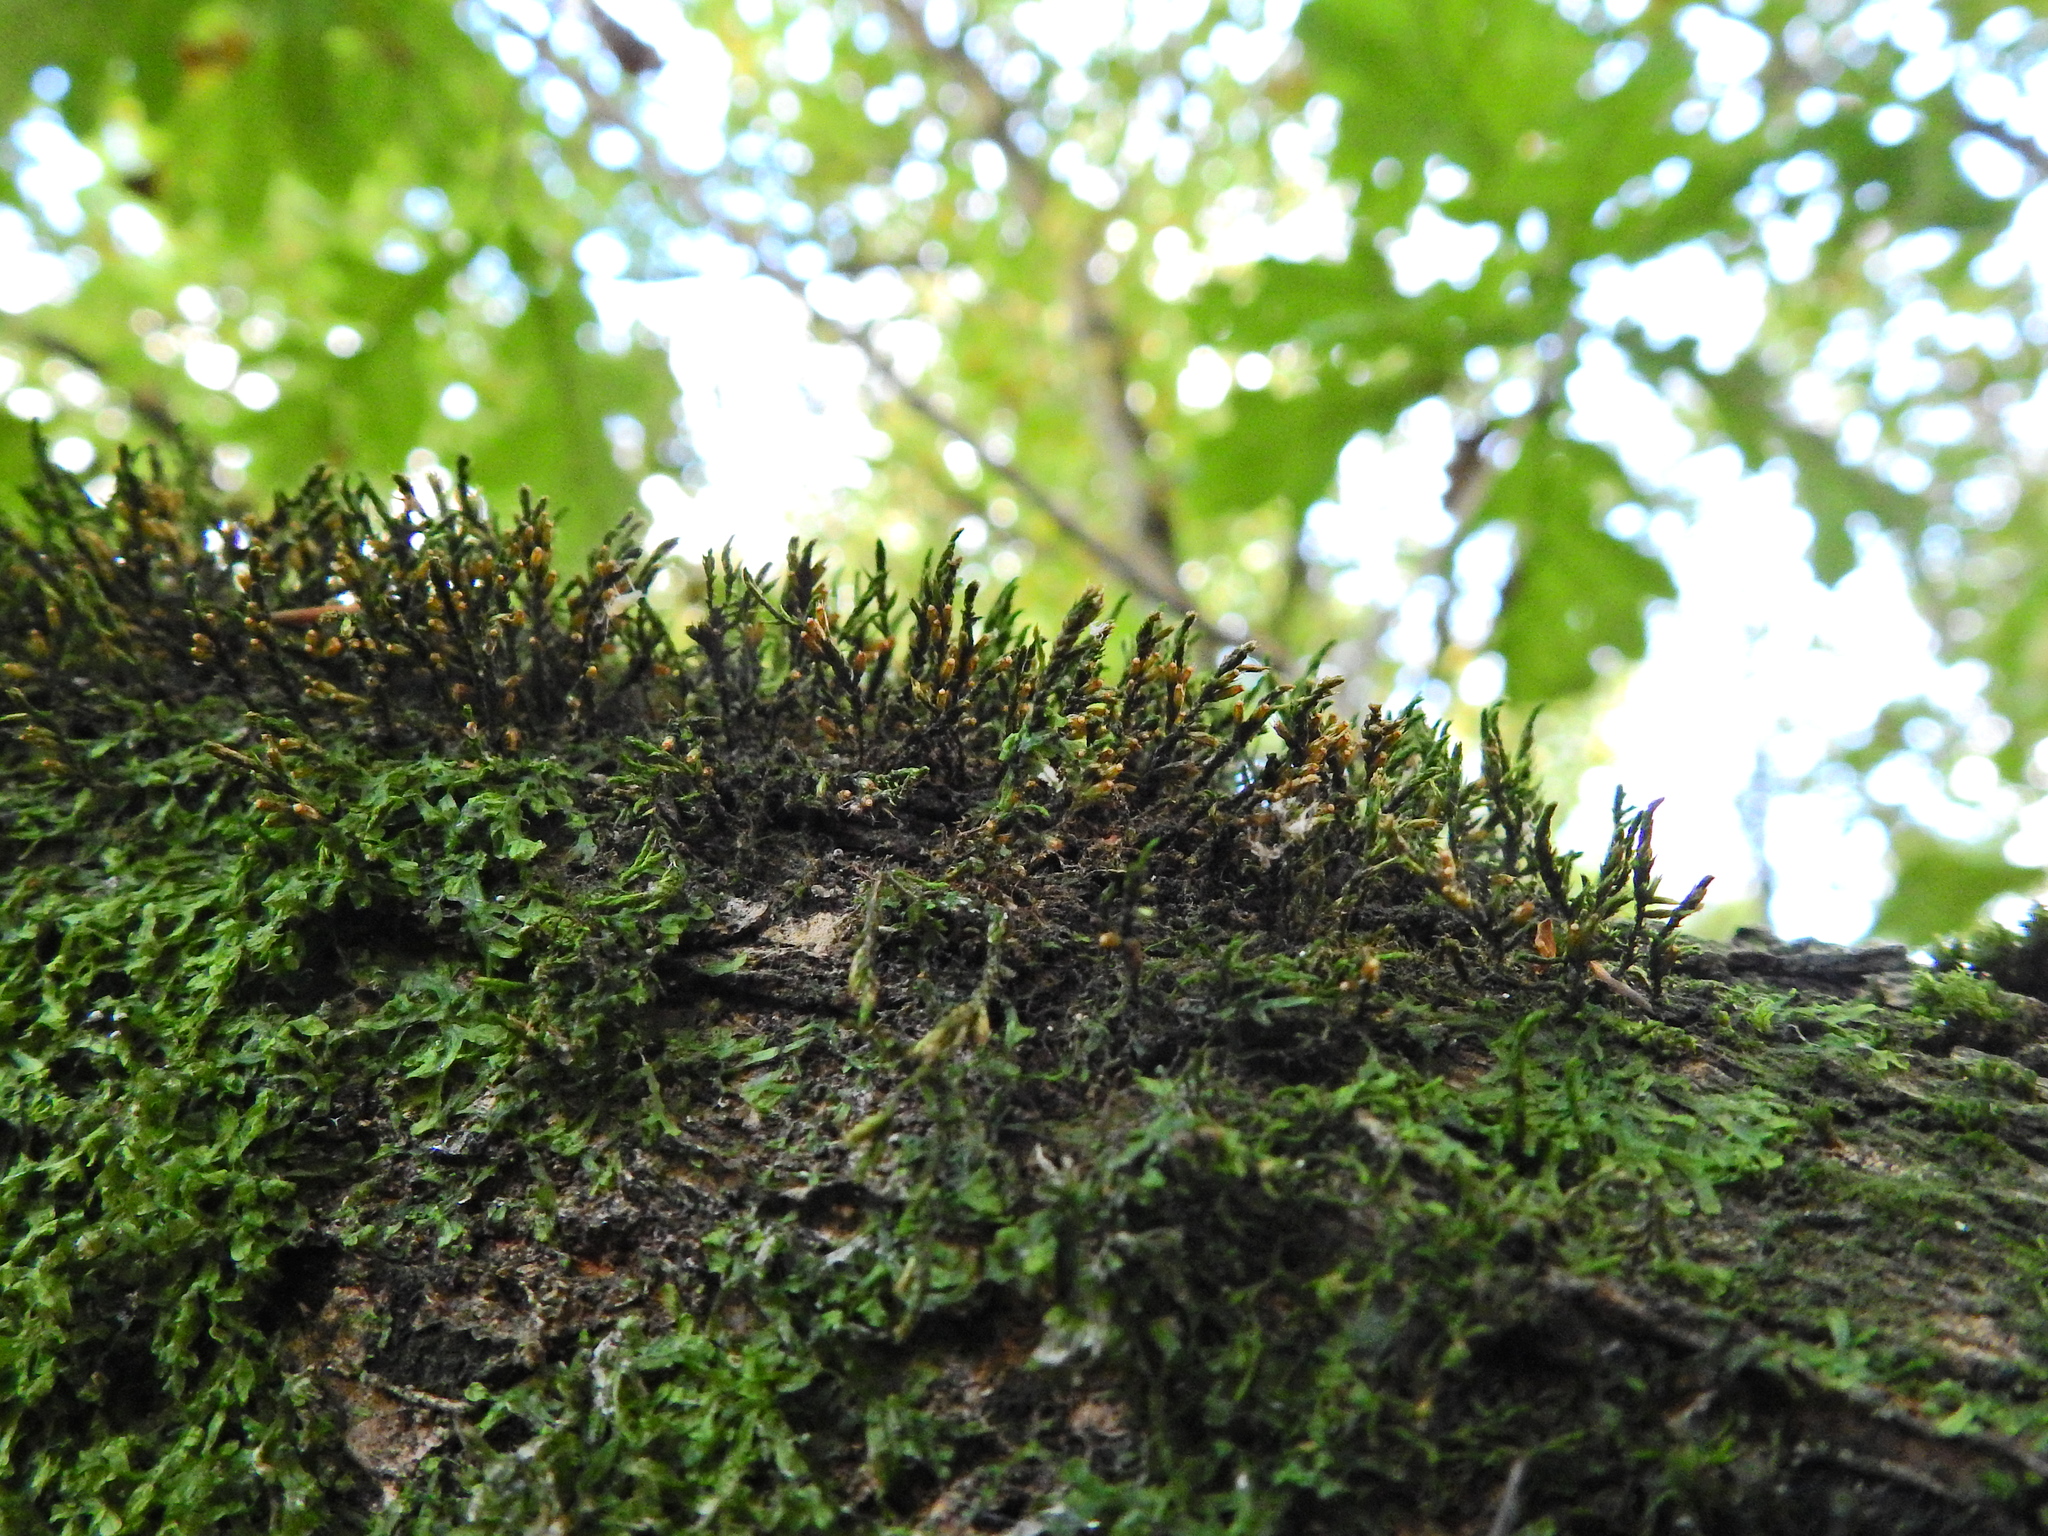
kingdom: Plantae
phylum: Bryophyta
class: Bryopsida
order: Hypnales
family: Cryphaeaceae
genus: Cryphaea
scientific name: Cryphaea heteromalla
